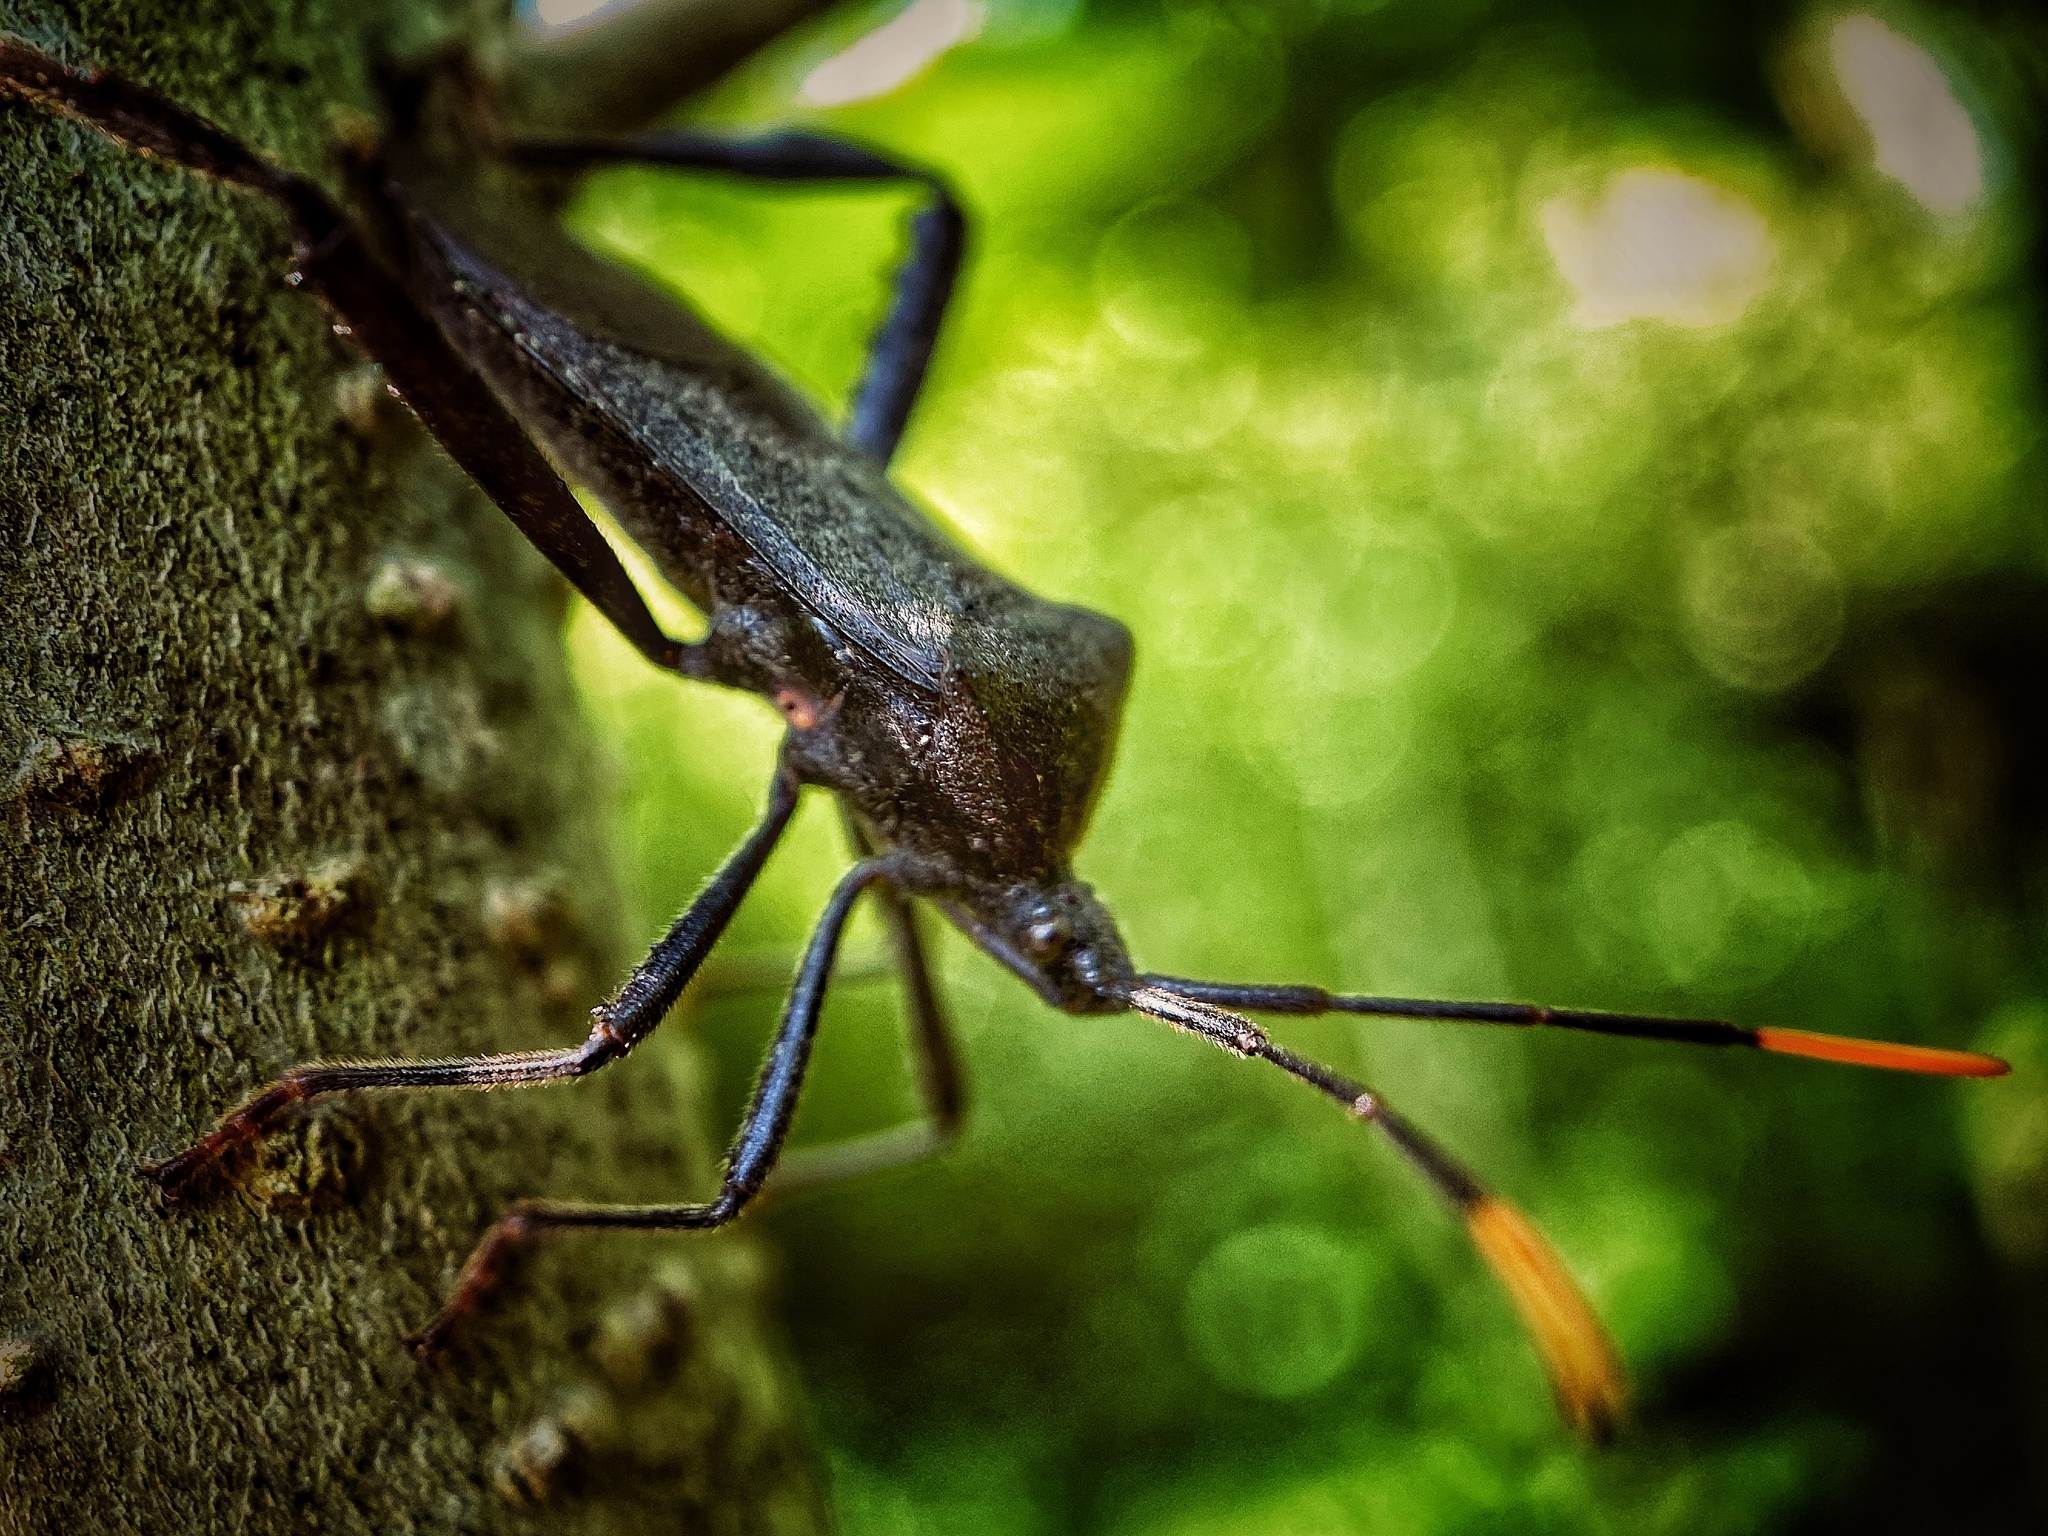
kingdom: Animalia
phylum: Arthropoda
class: Insecta
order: Hemiptera
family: Coreidae
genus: Acanthocephala
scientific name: Acanthocephala terminalis
